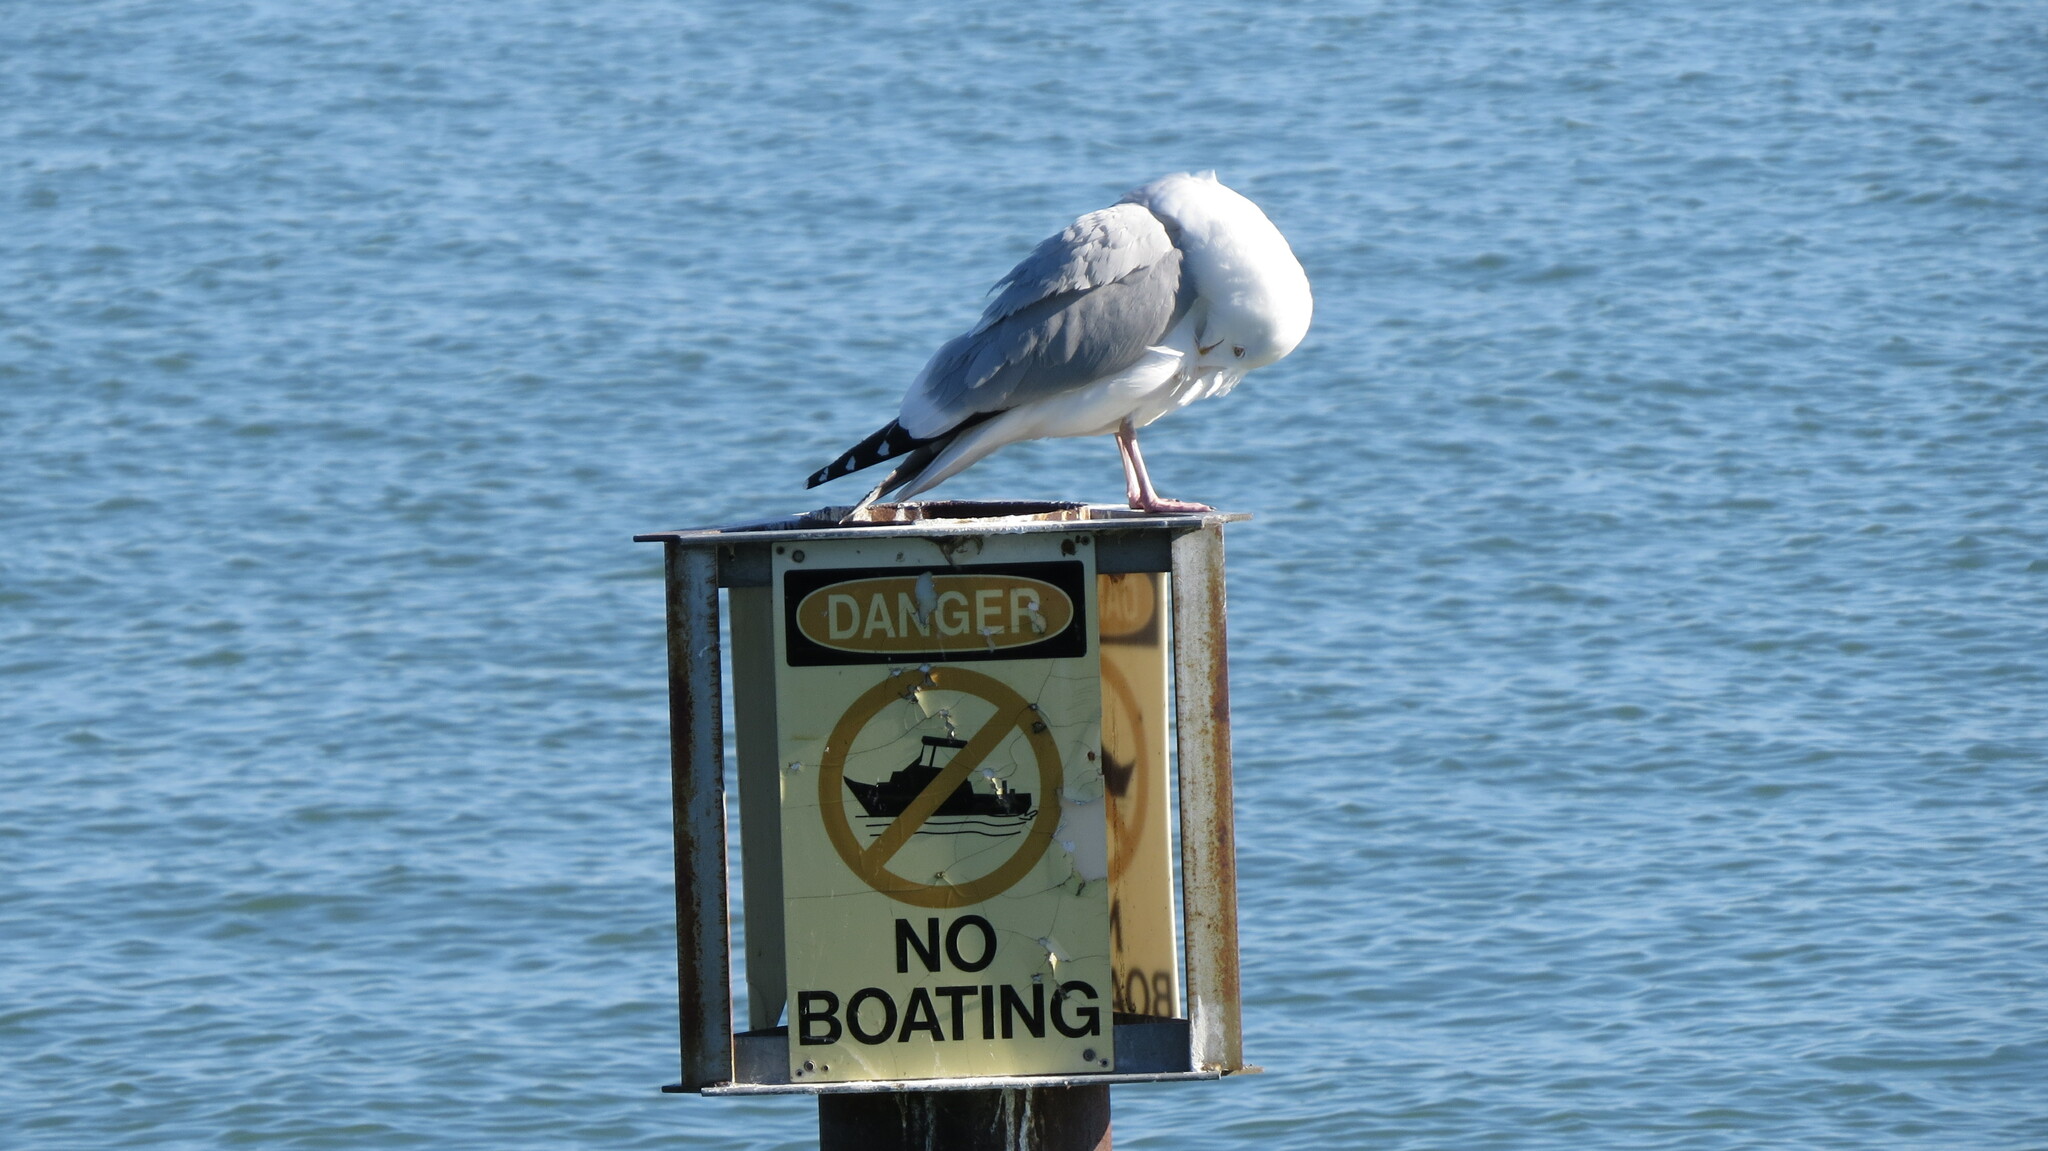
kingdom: Animalia
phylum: Chordata
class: Aves
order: Charadriiformes
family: Laridae
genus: Larus
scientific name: Larus smithsonianus
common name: American herring gull
